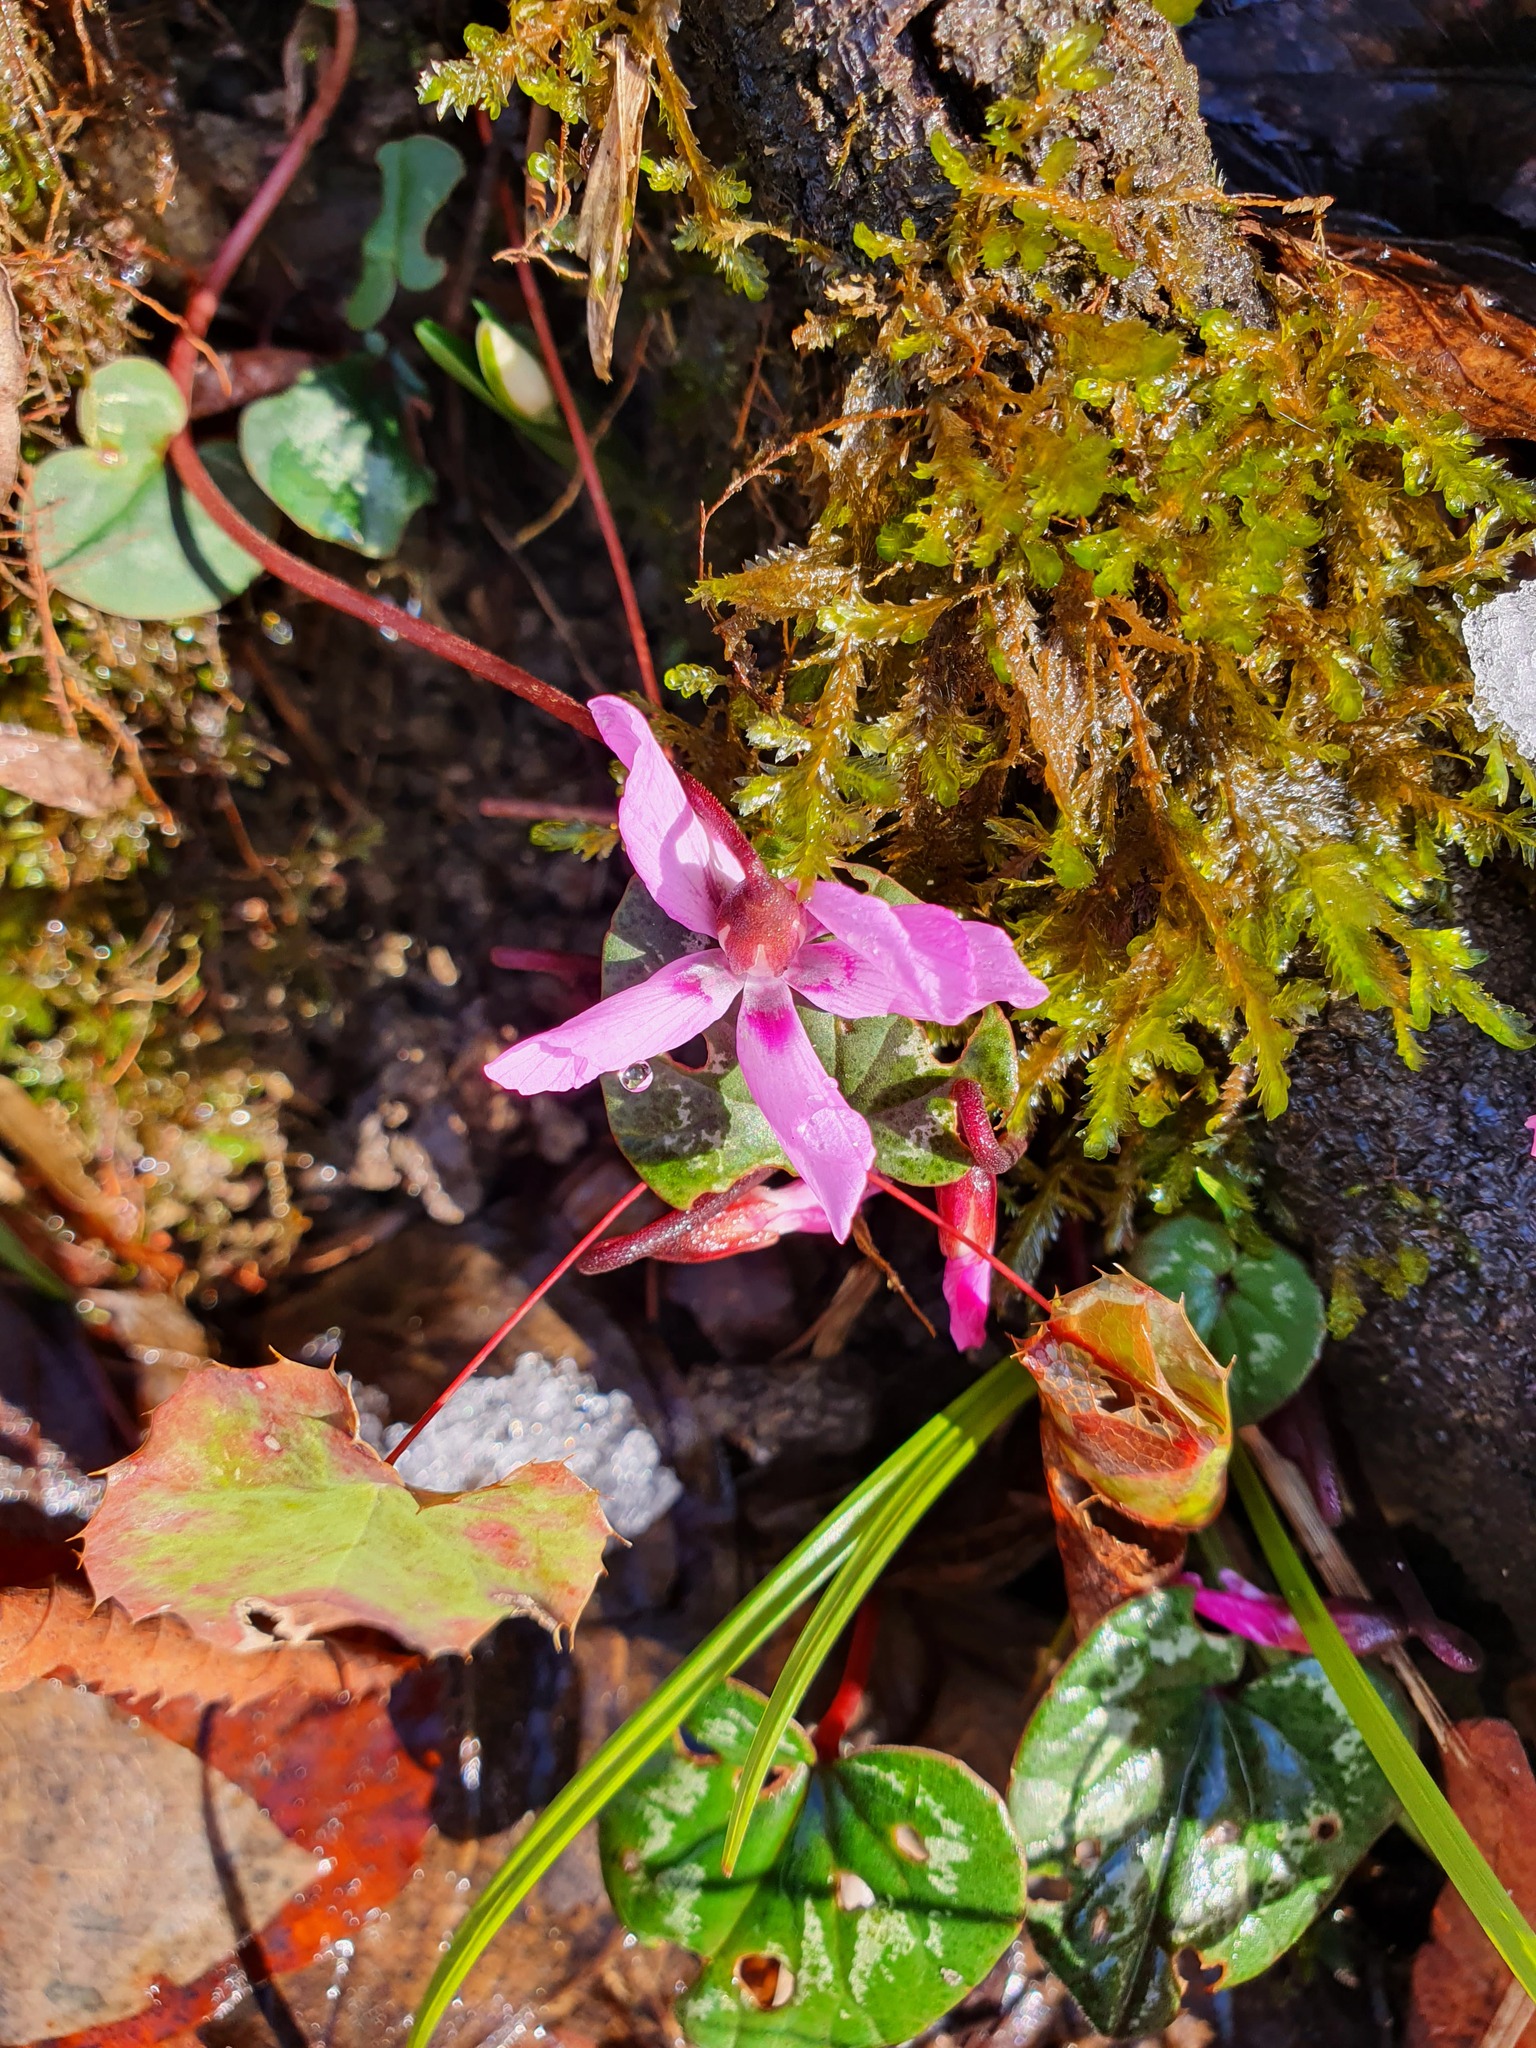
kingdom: Plantae
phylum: Tracheophyta
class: Magnoliopsida
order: Ericales
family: Primulaceae
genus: Cyclamen
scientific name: Cyclamen coum
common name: Eastern sowbread
